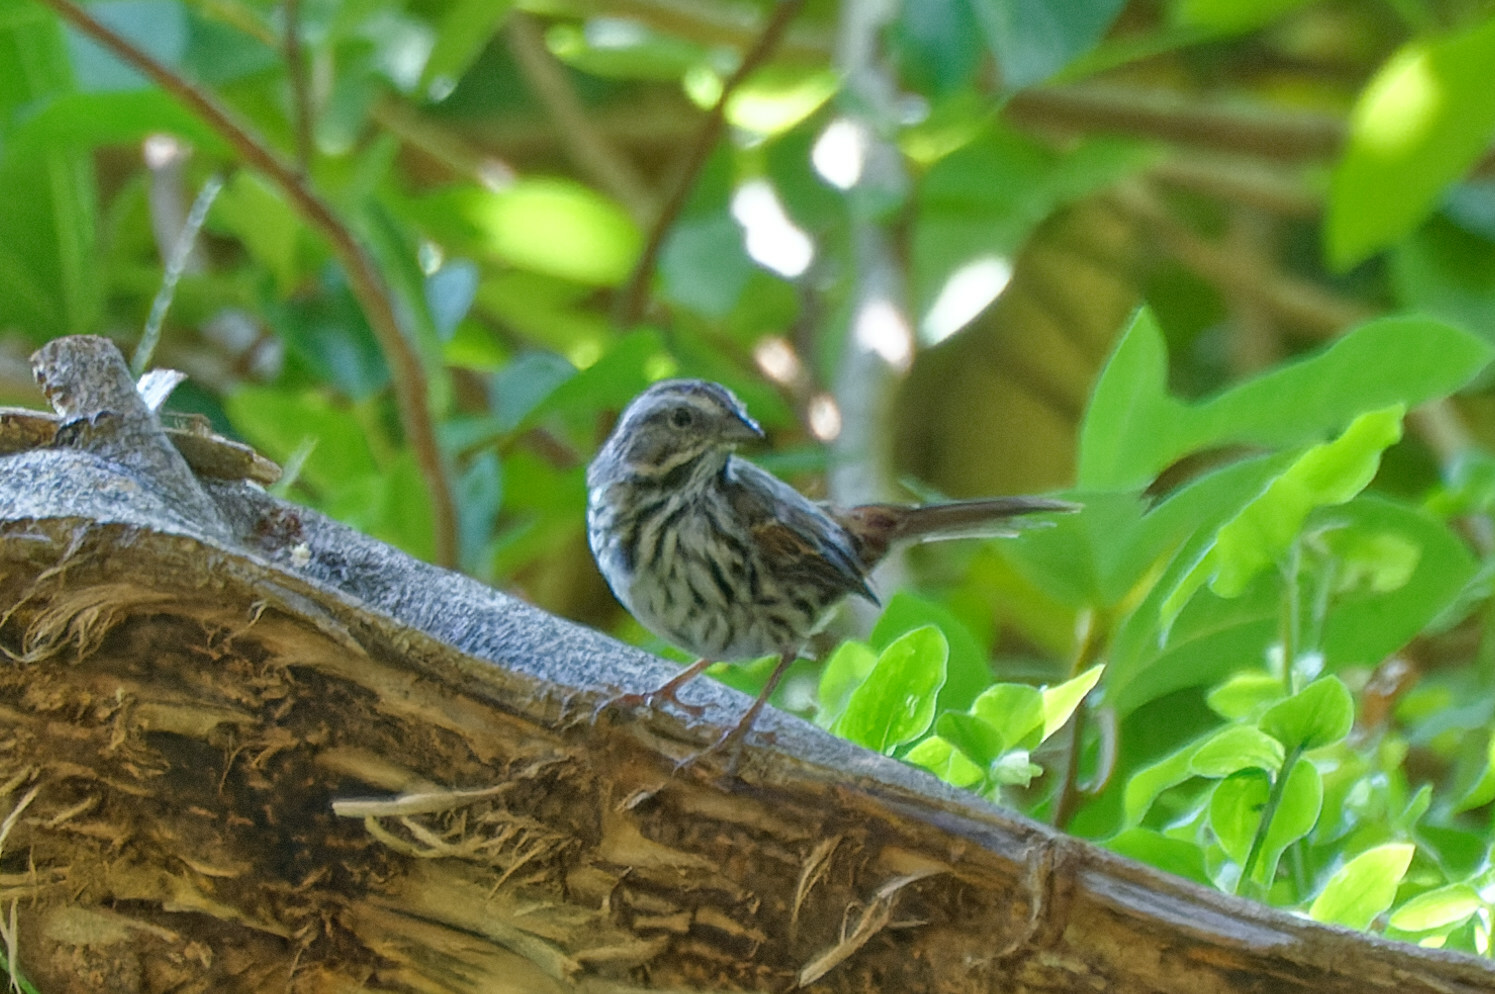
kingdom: Animalia
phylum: Chordata
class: Aves
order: Passeriformes
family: Passerellidae
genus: Melospiza
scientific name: Melospiza melodia
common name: Song sparrow
